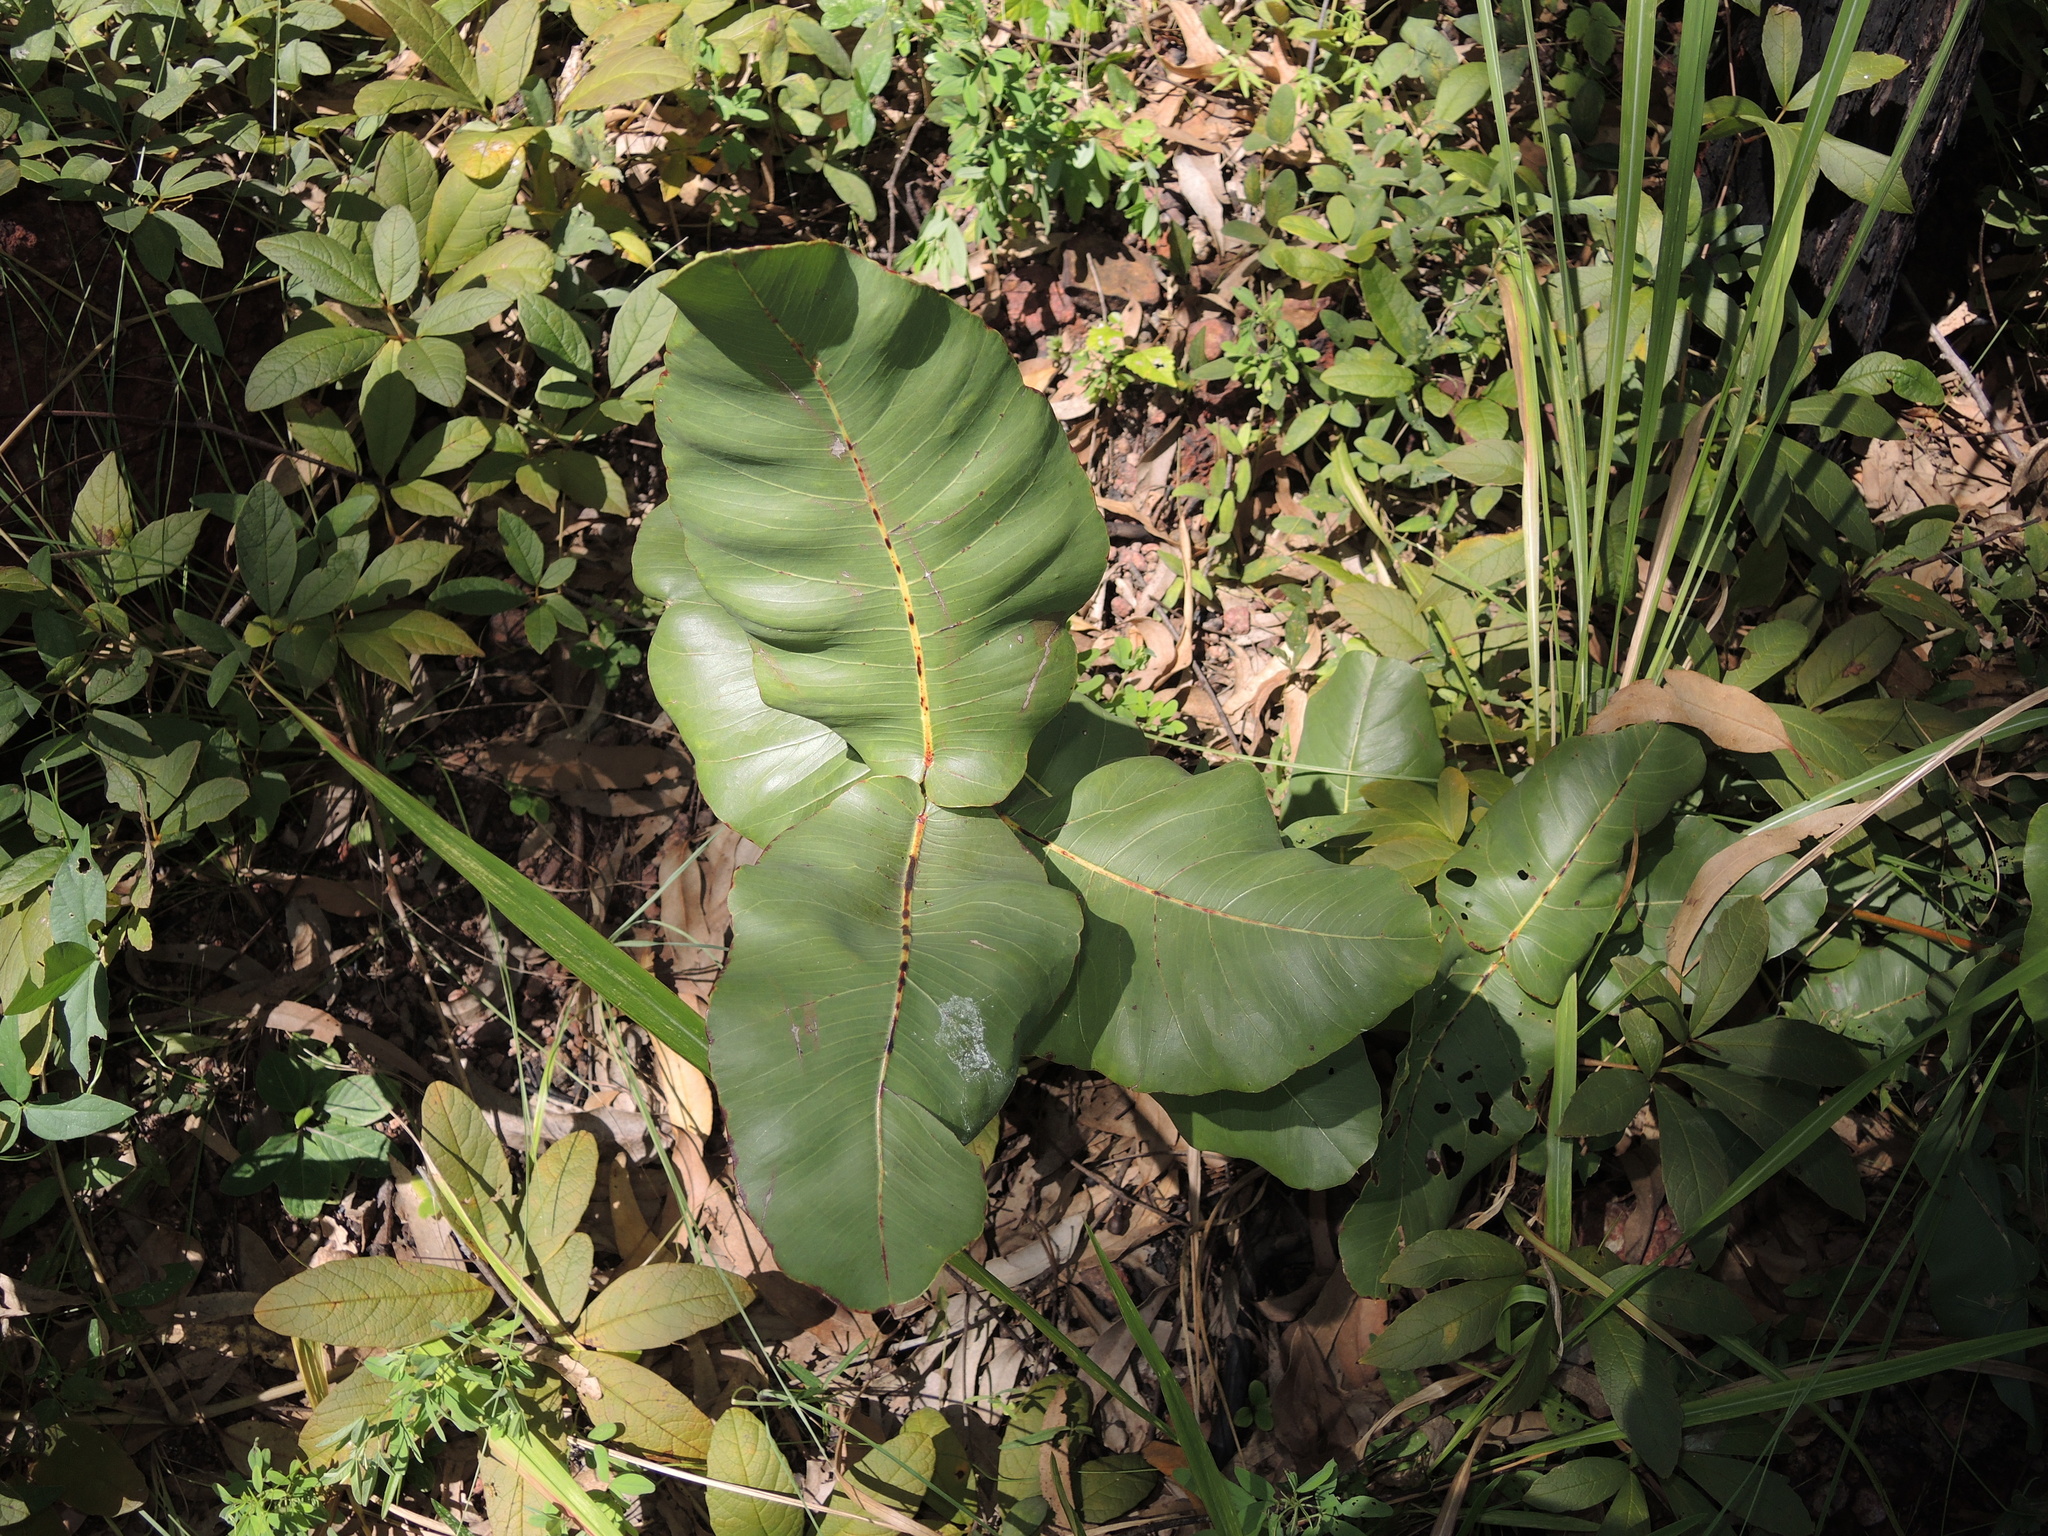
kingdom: Plantae
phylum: Tracheophyta
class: Magnoliopsida
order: Myrtales
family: Myrtaceae
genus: Corymbia
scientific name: Corymbia ptychocarpa
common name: Spring-bloodwood
